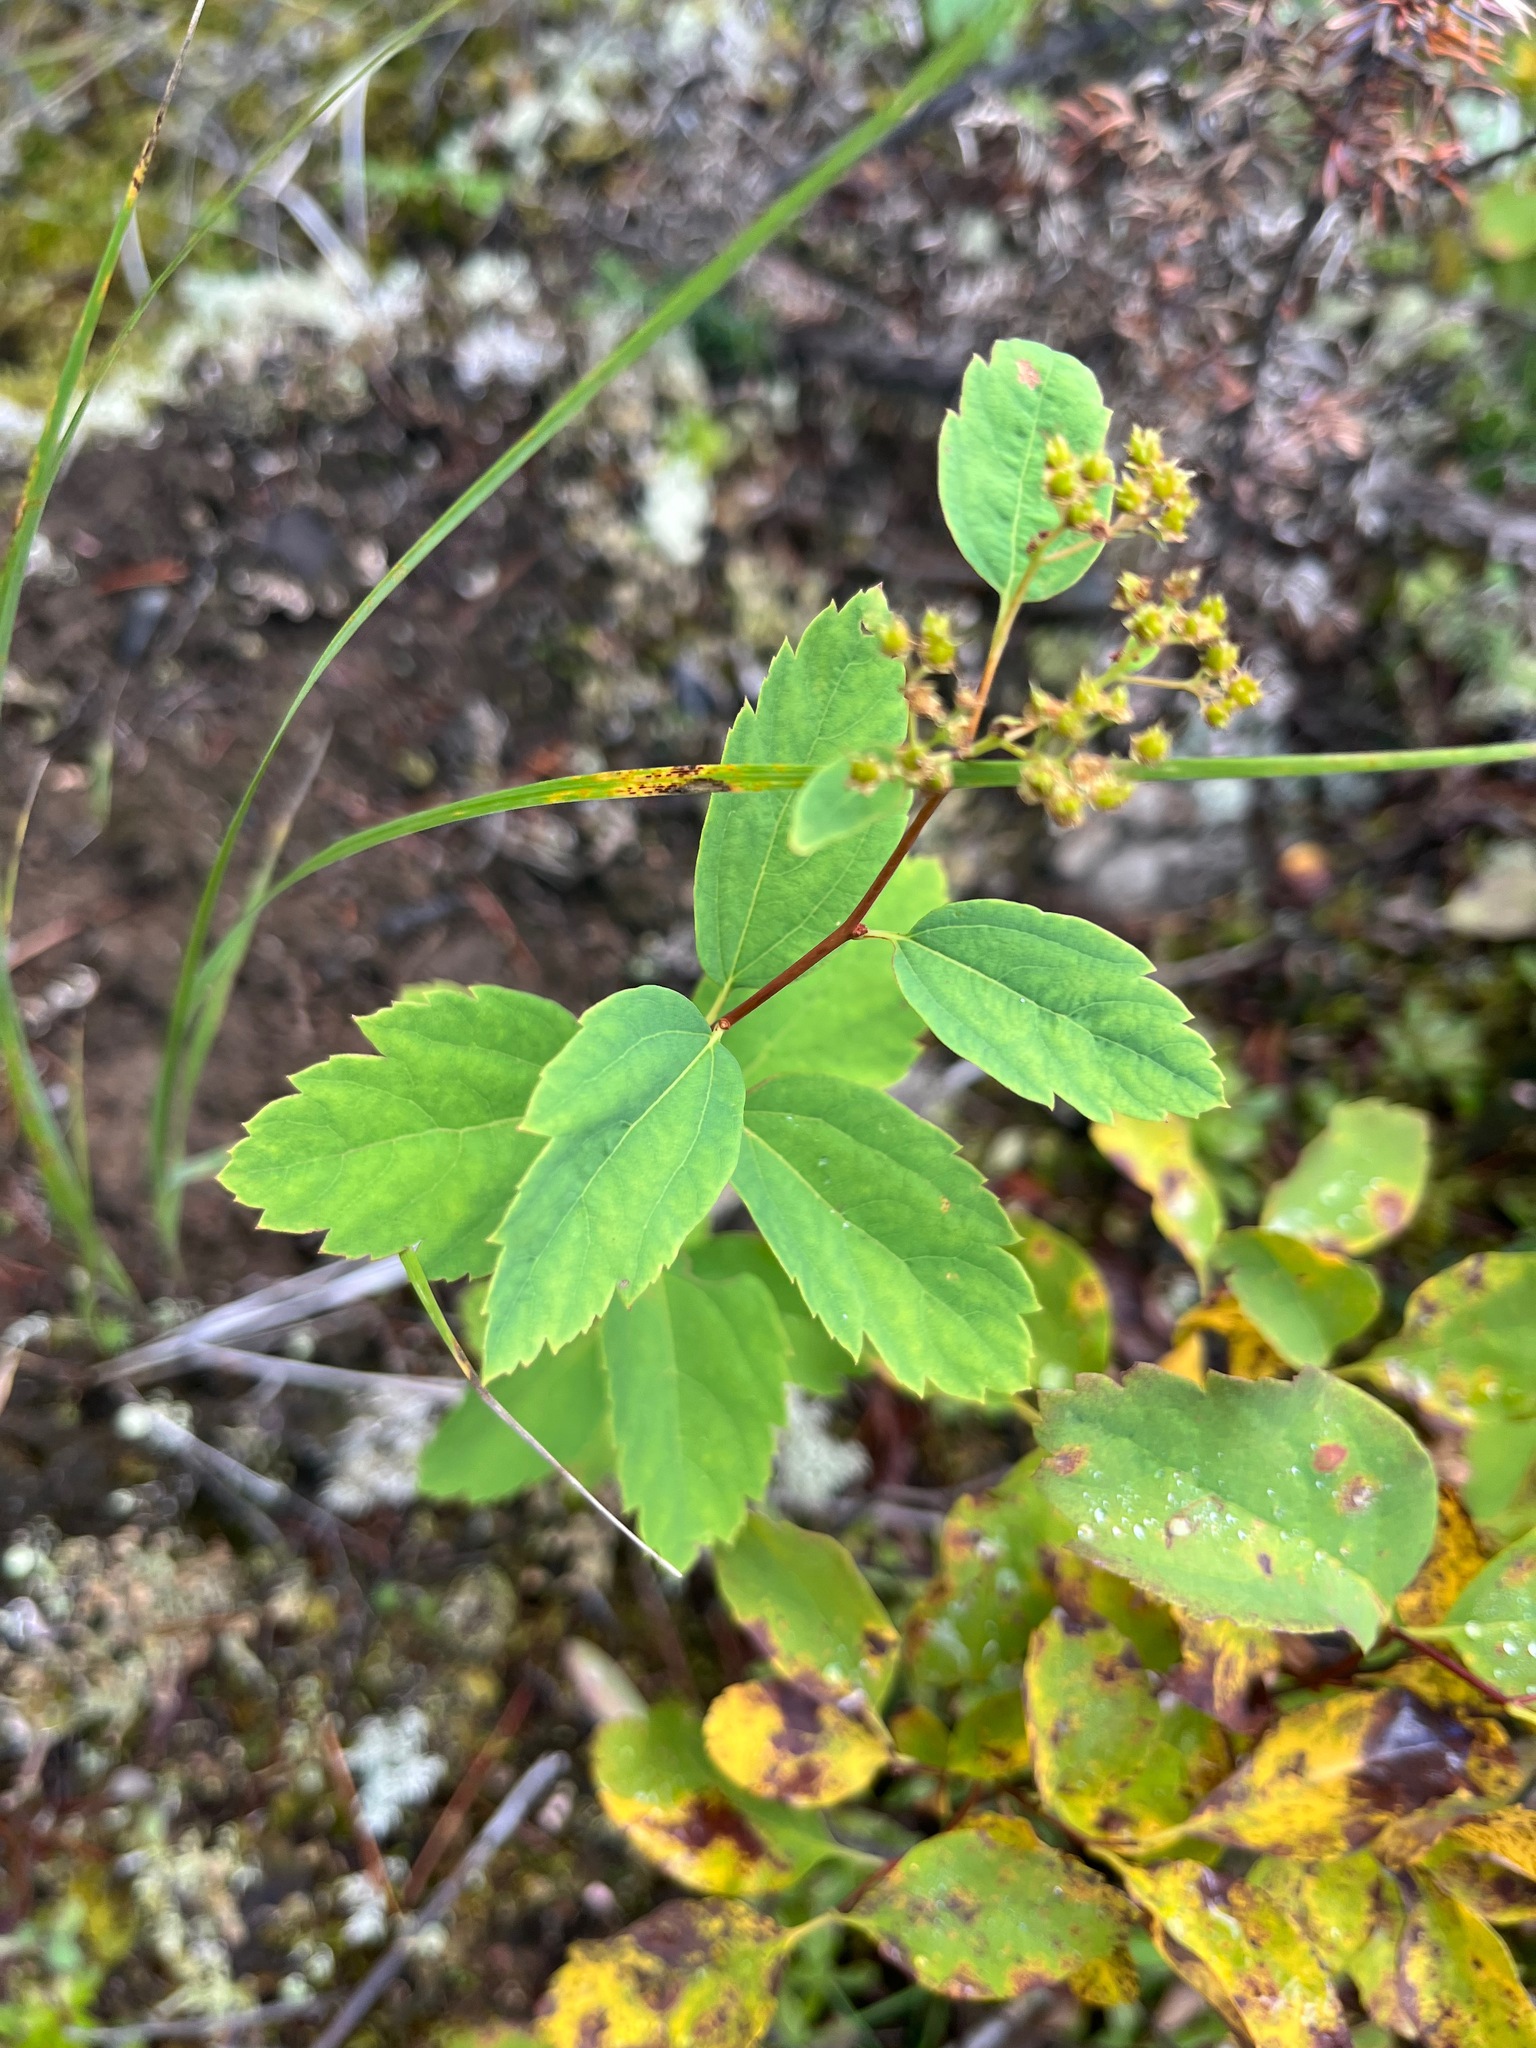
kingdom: Plantae
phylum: Tracheophyta
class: Magnoliopsida
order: Rosales
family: Rosaceae
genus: Spiraea
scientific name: Spiraea lucida
